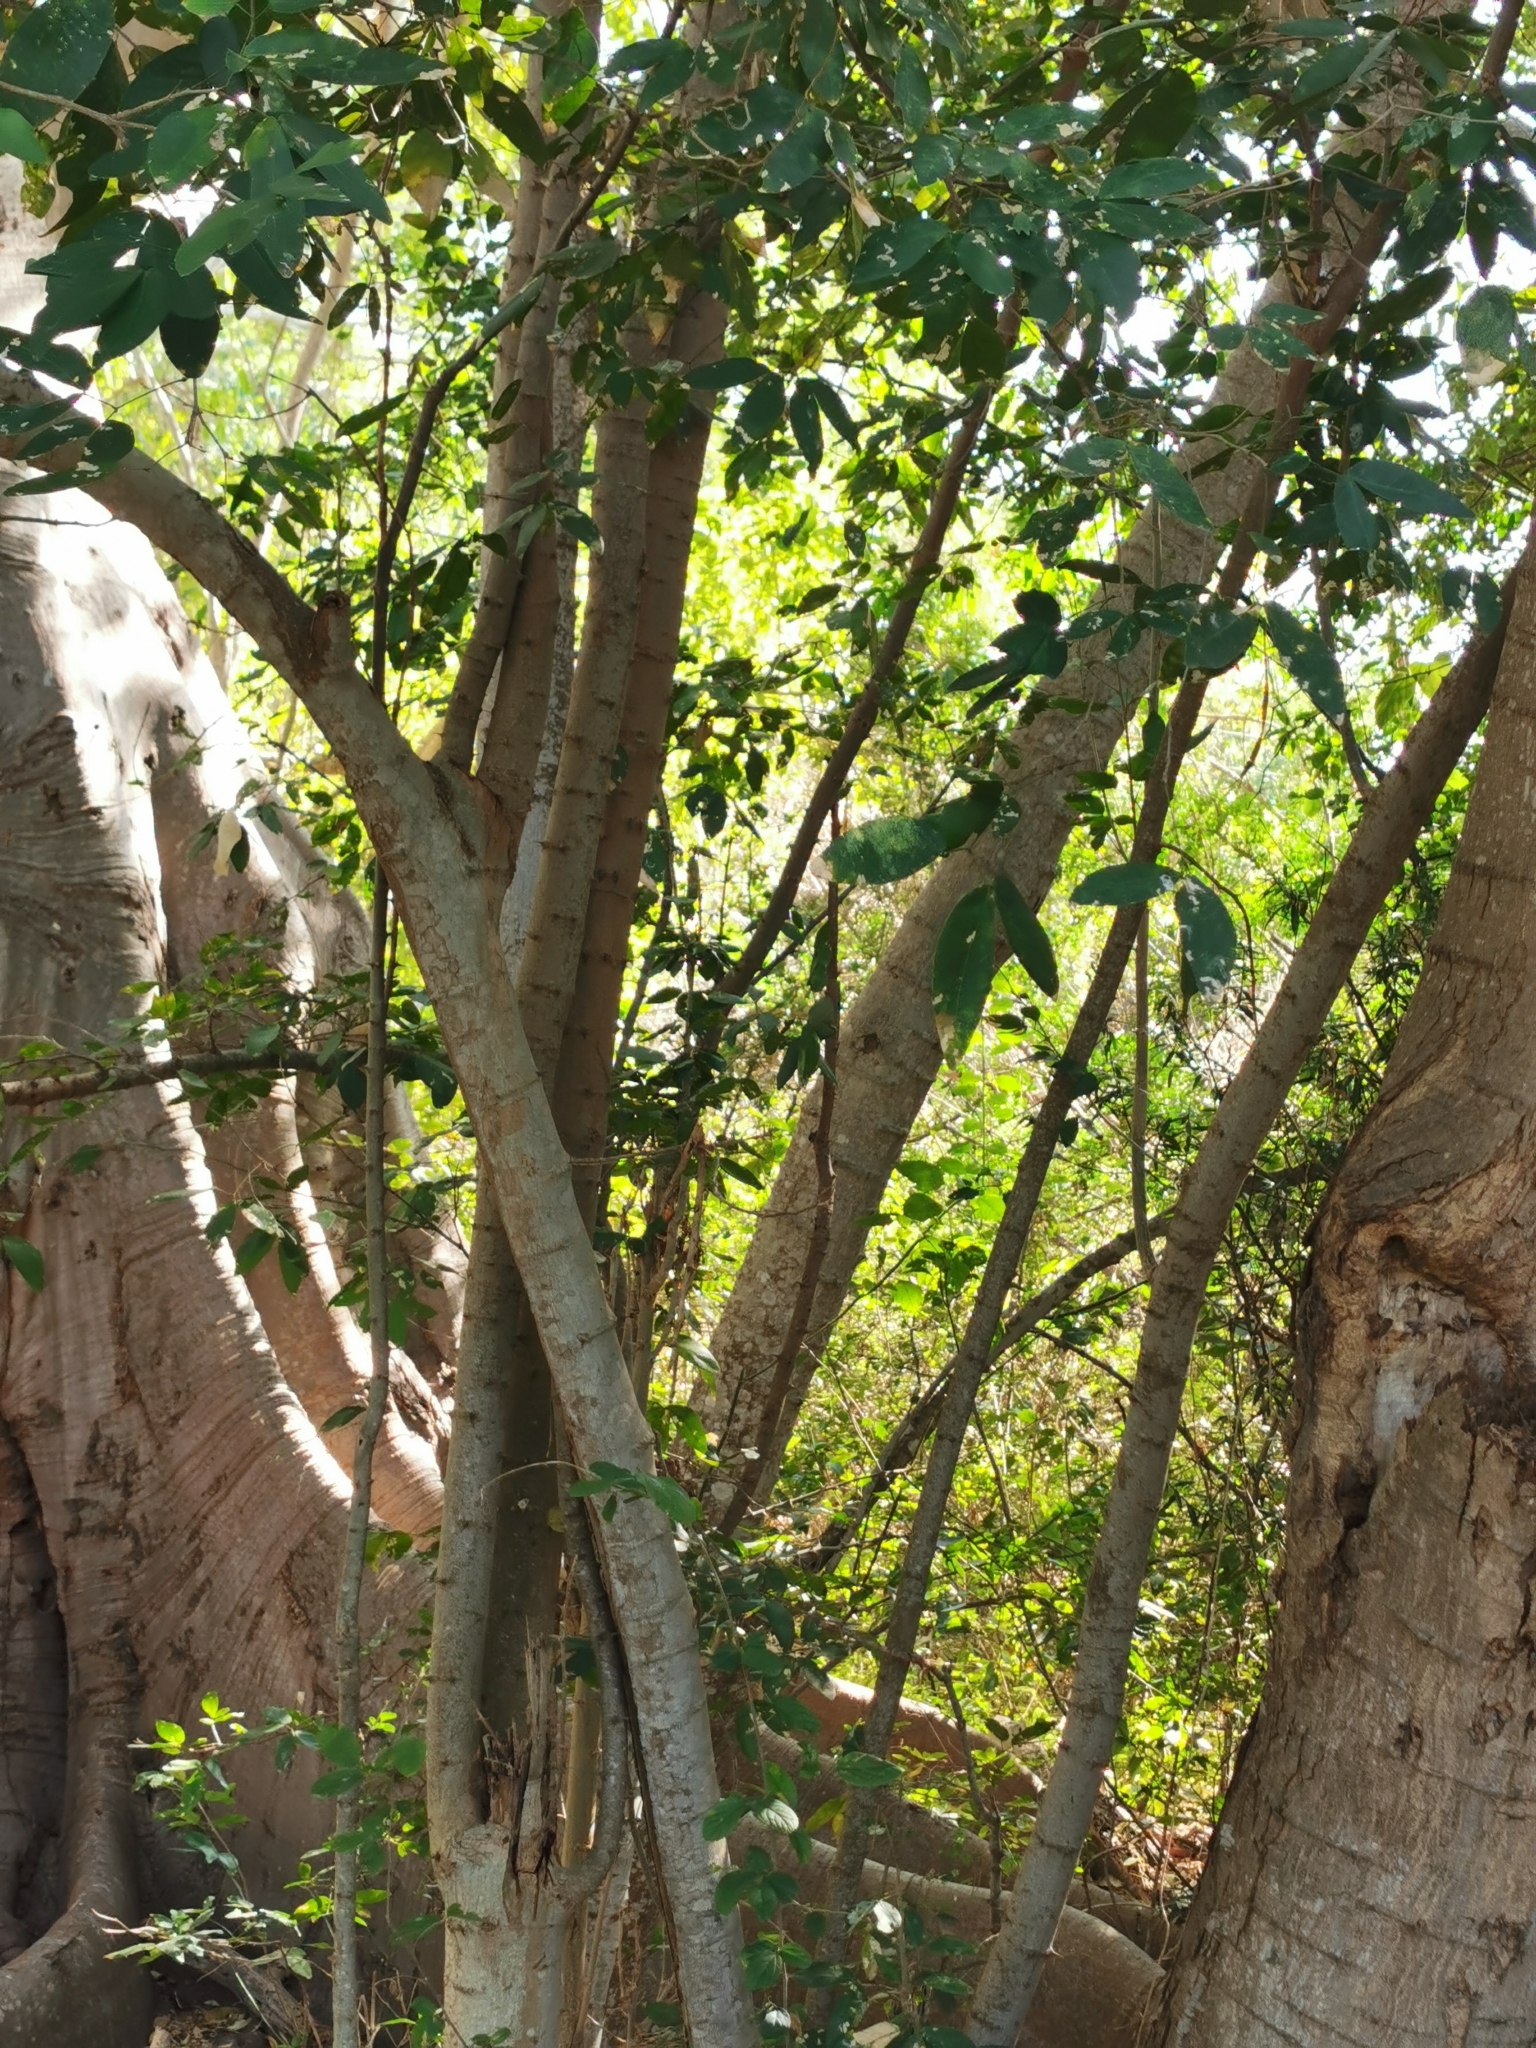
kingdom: Plantae
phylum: Tracheophyta
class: Magnoliopsida
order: Fabales
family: Fabaceae
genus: Pithecellobium
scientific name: Pithecellobium lanceolatum
